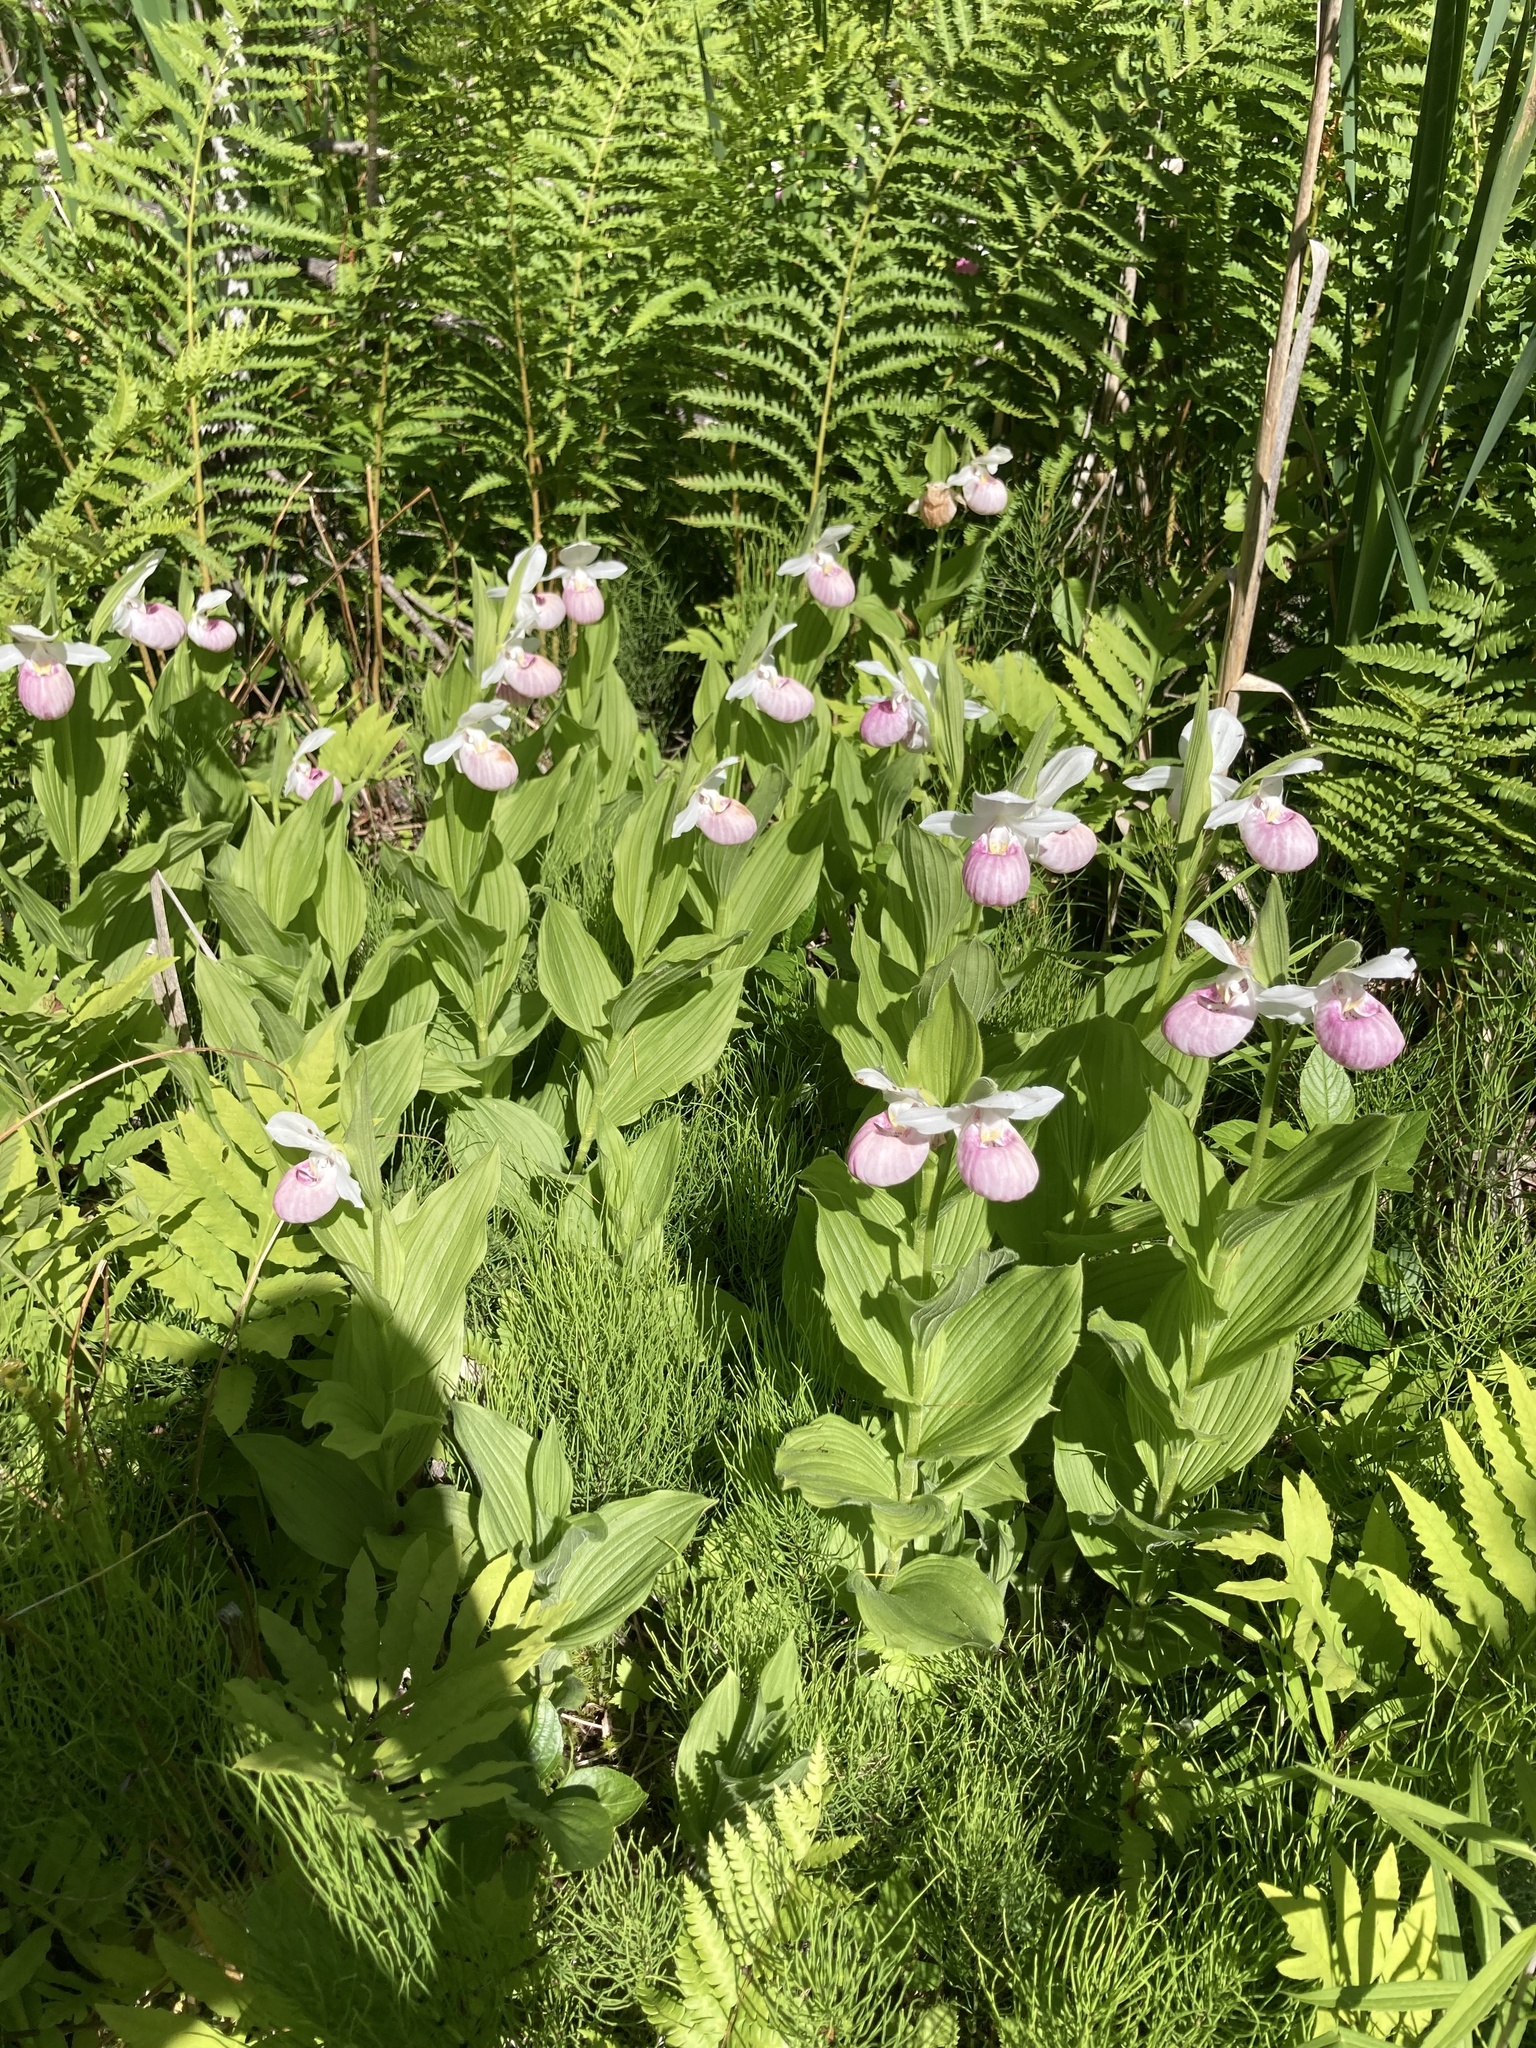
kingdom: Plantae
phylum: Tracheophyta
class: Liliopsida
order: Asparagales
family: Orchidaceae
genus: Cypripedium
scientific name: Cypripedium reginae
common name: Queen lady's-slipper
